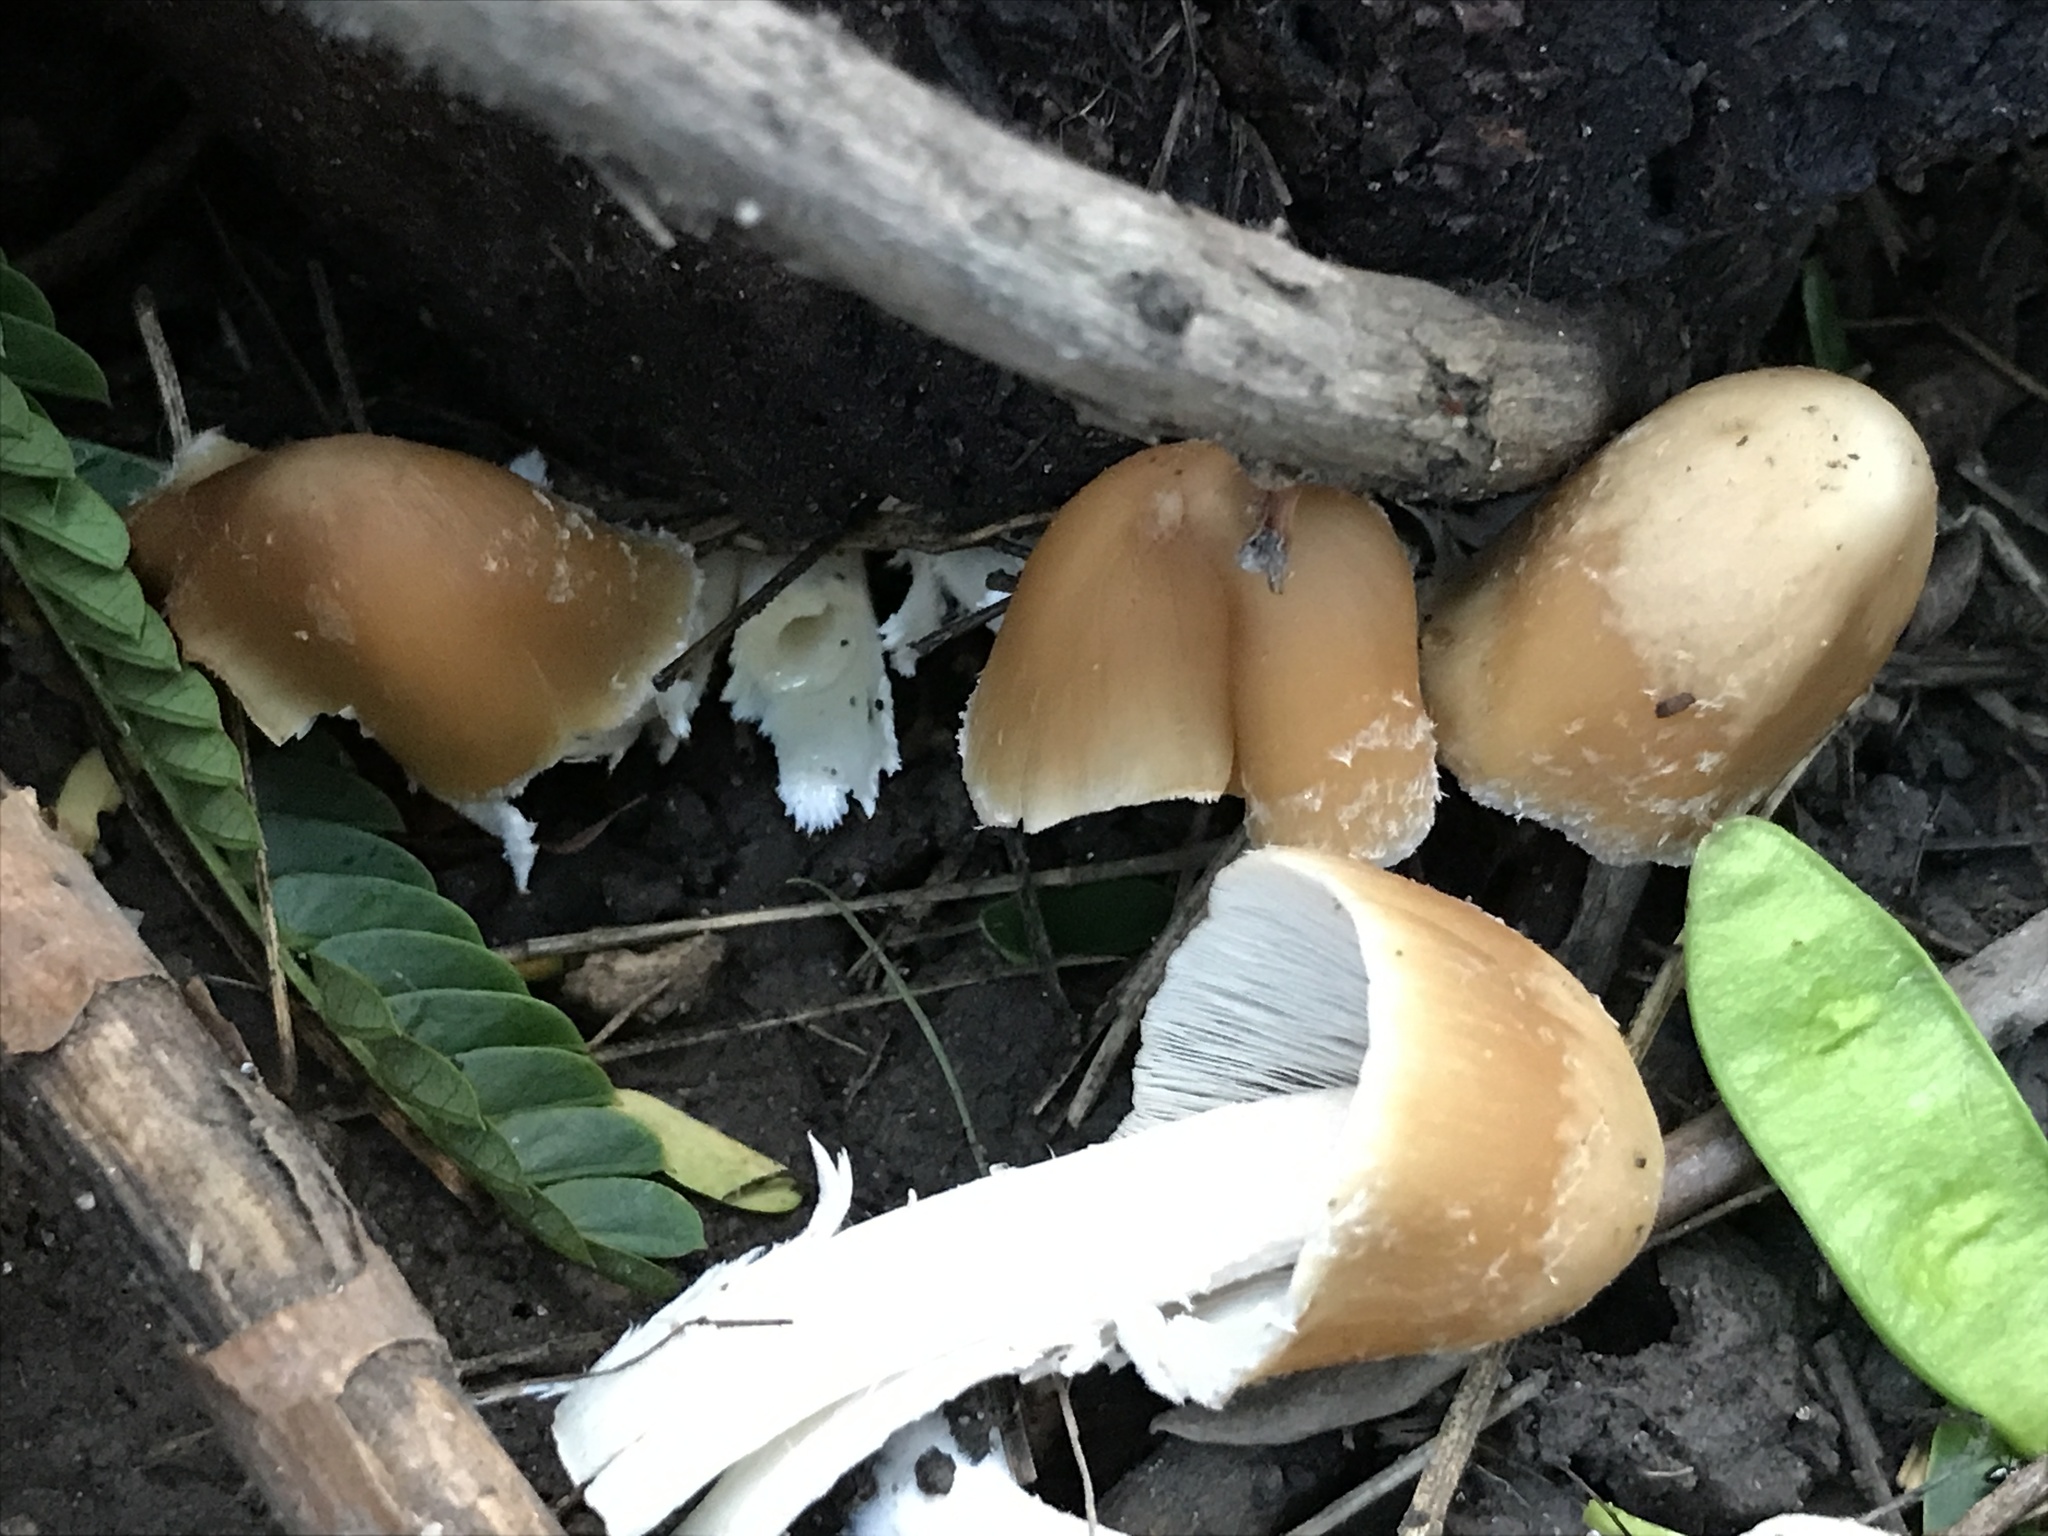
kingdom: Fungi
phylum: Basidiomycota
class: Agaricomycetes
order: Agaricales
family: Psathyrellaceae
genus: Candolleomyces
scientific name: Candolleomyces candolleanus
